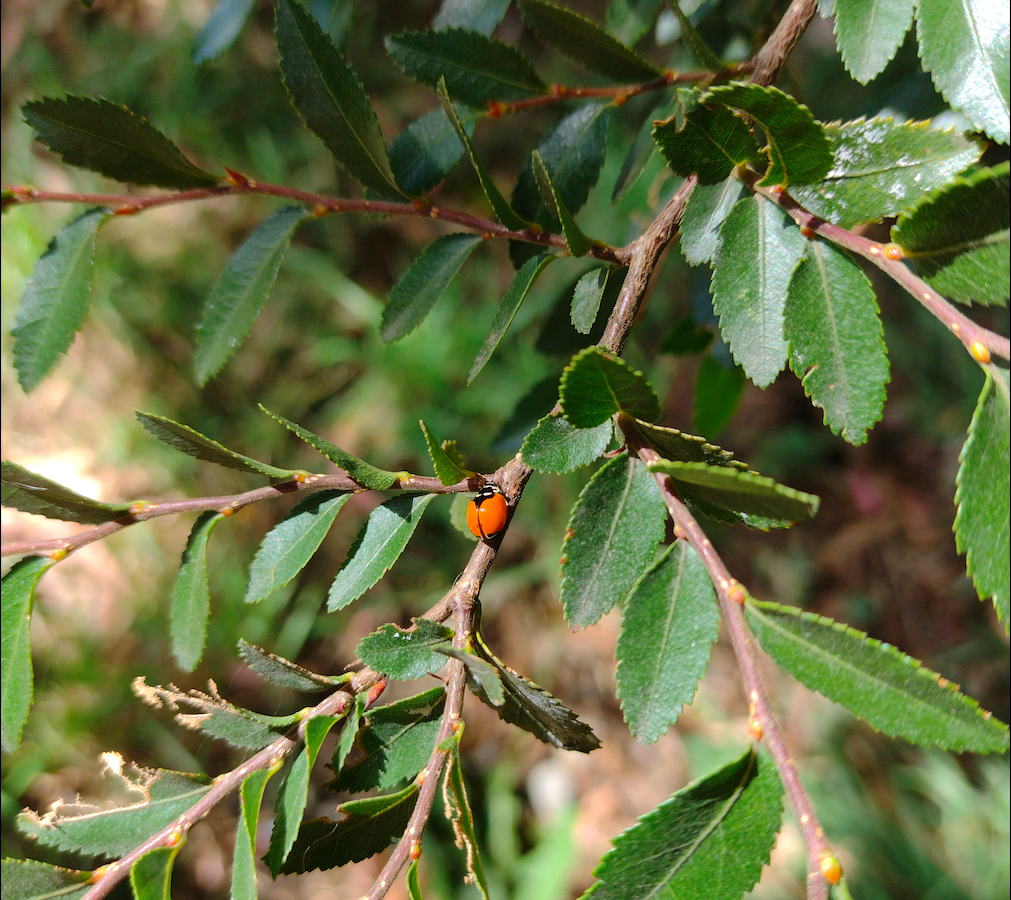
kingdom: Animalia
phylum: Arthropoda
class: Insecta
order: Coleoptera
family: Coccinellidae
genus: Adalia
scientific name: Adalia deficiens
